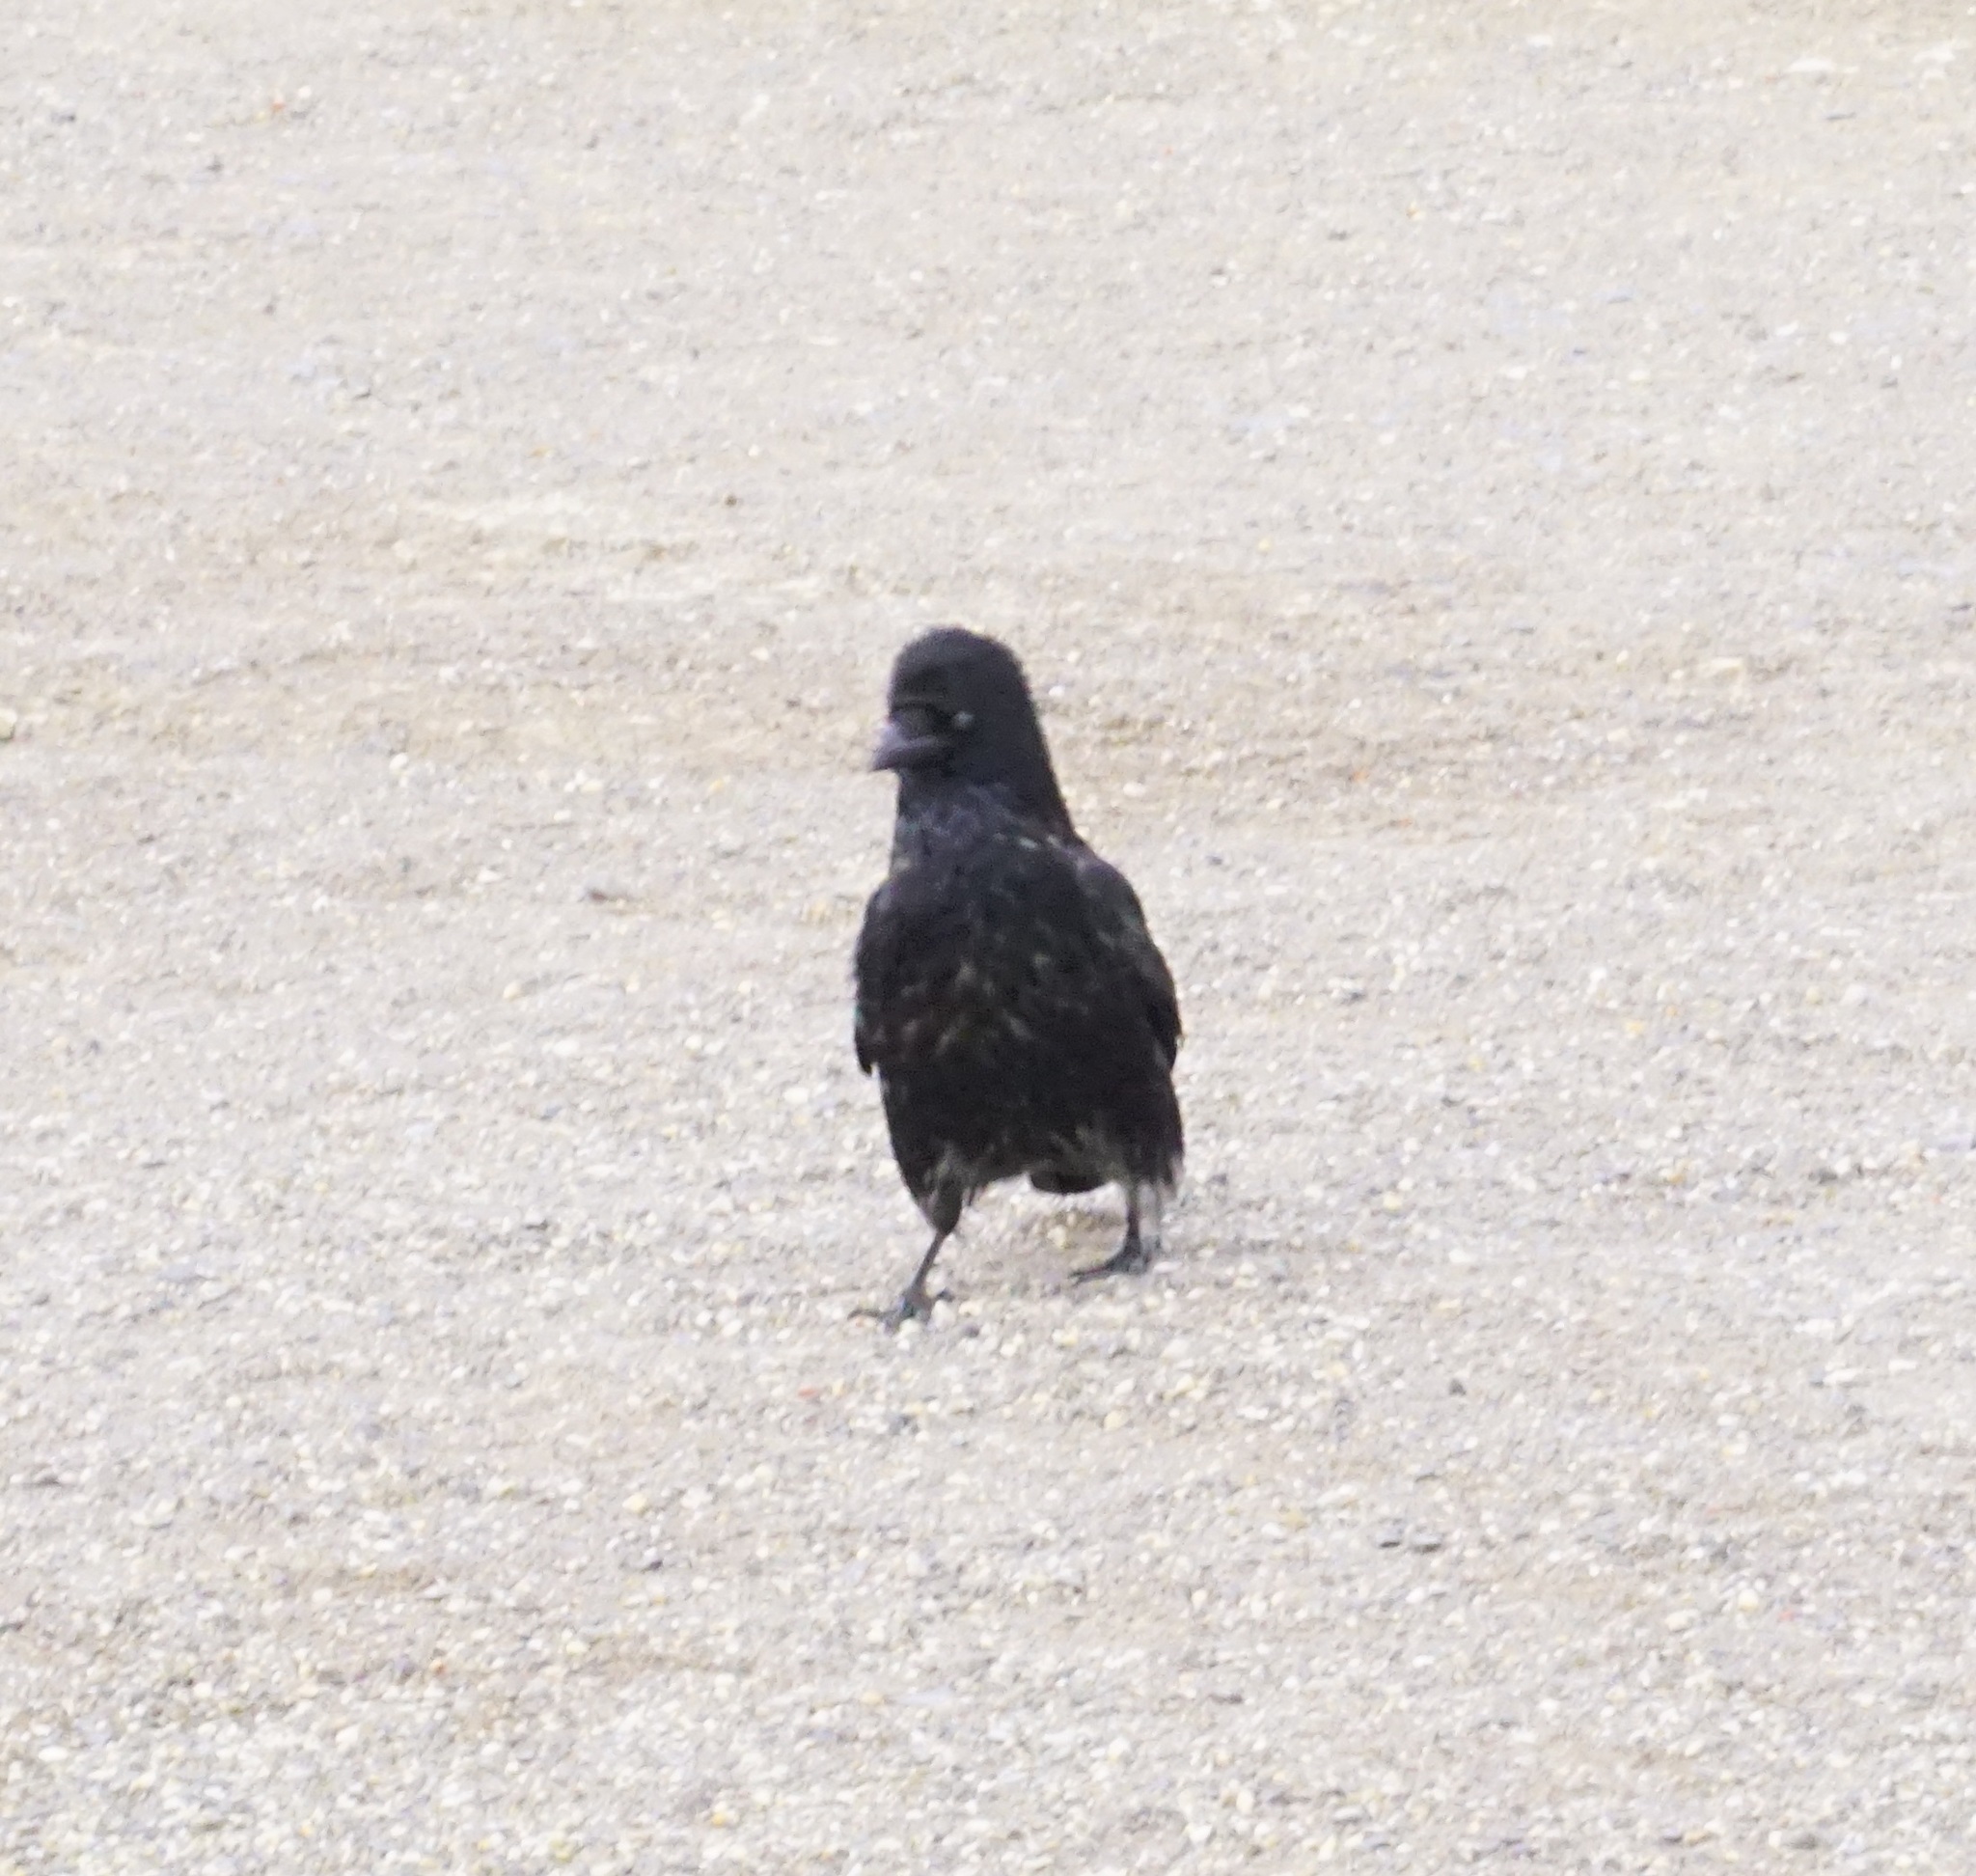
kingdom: Animalia
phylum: Chordata
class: Aves
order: Passeriformes
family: Corvidae
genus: Corvus
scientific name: Corvus
